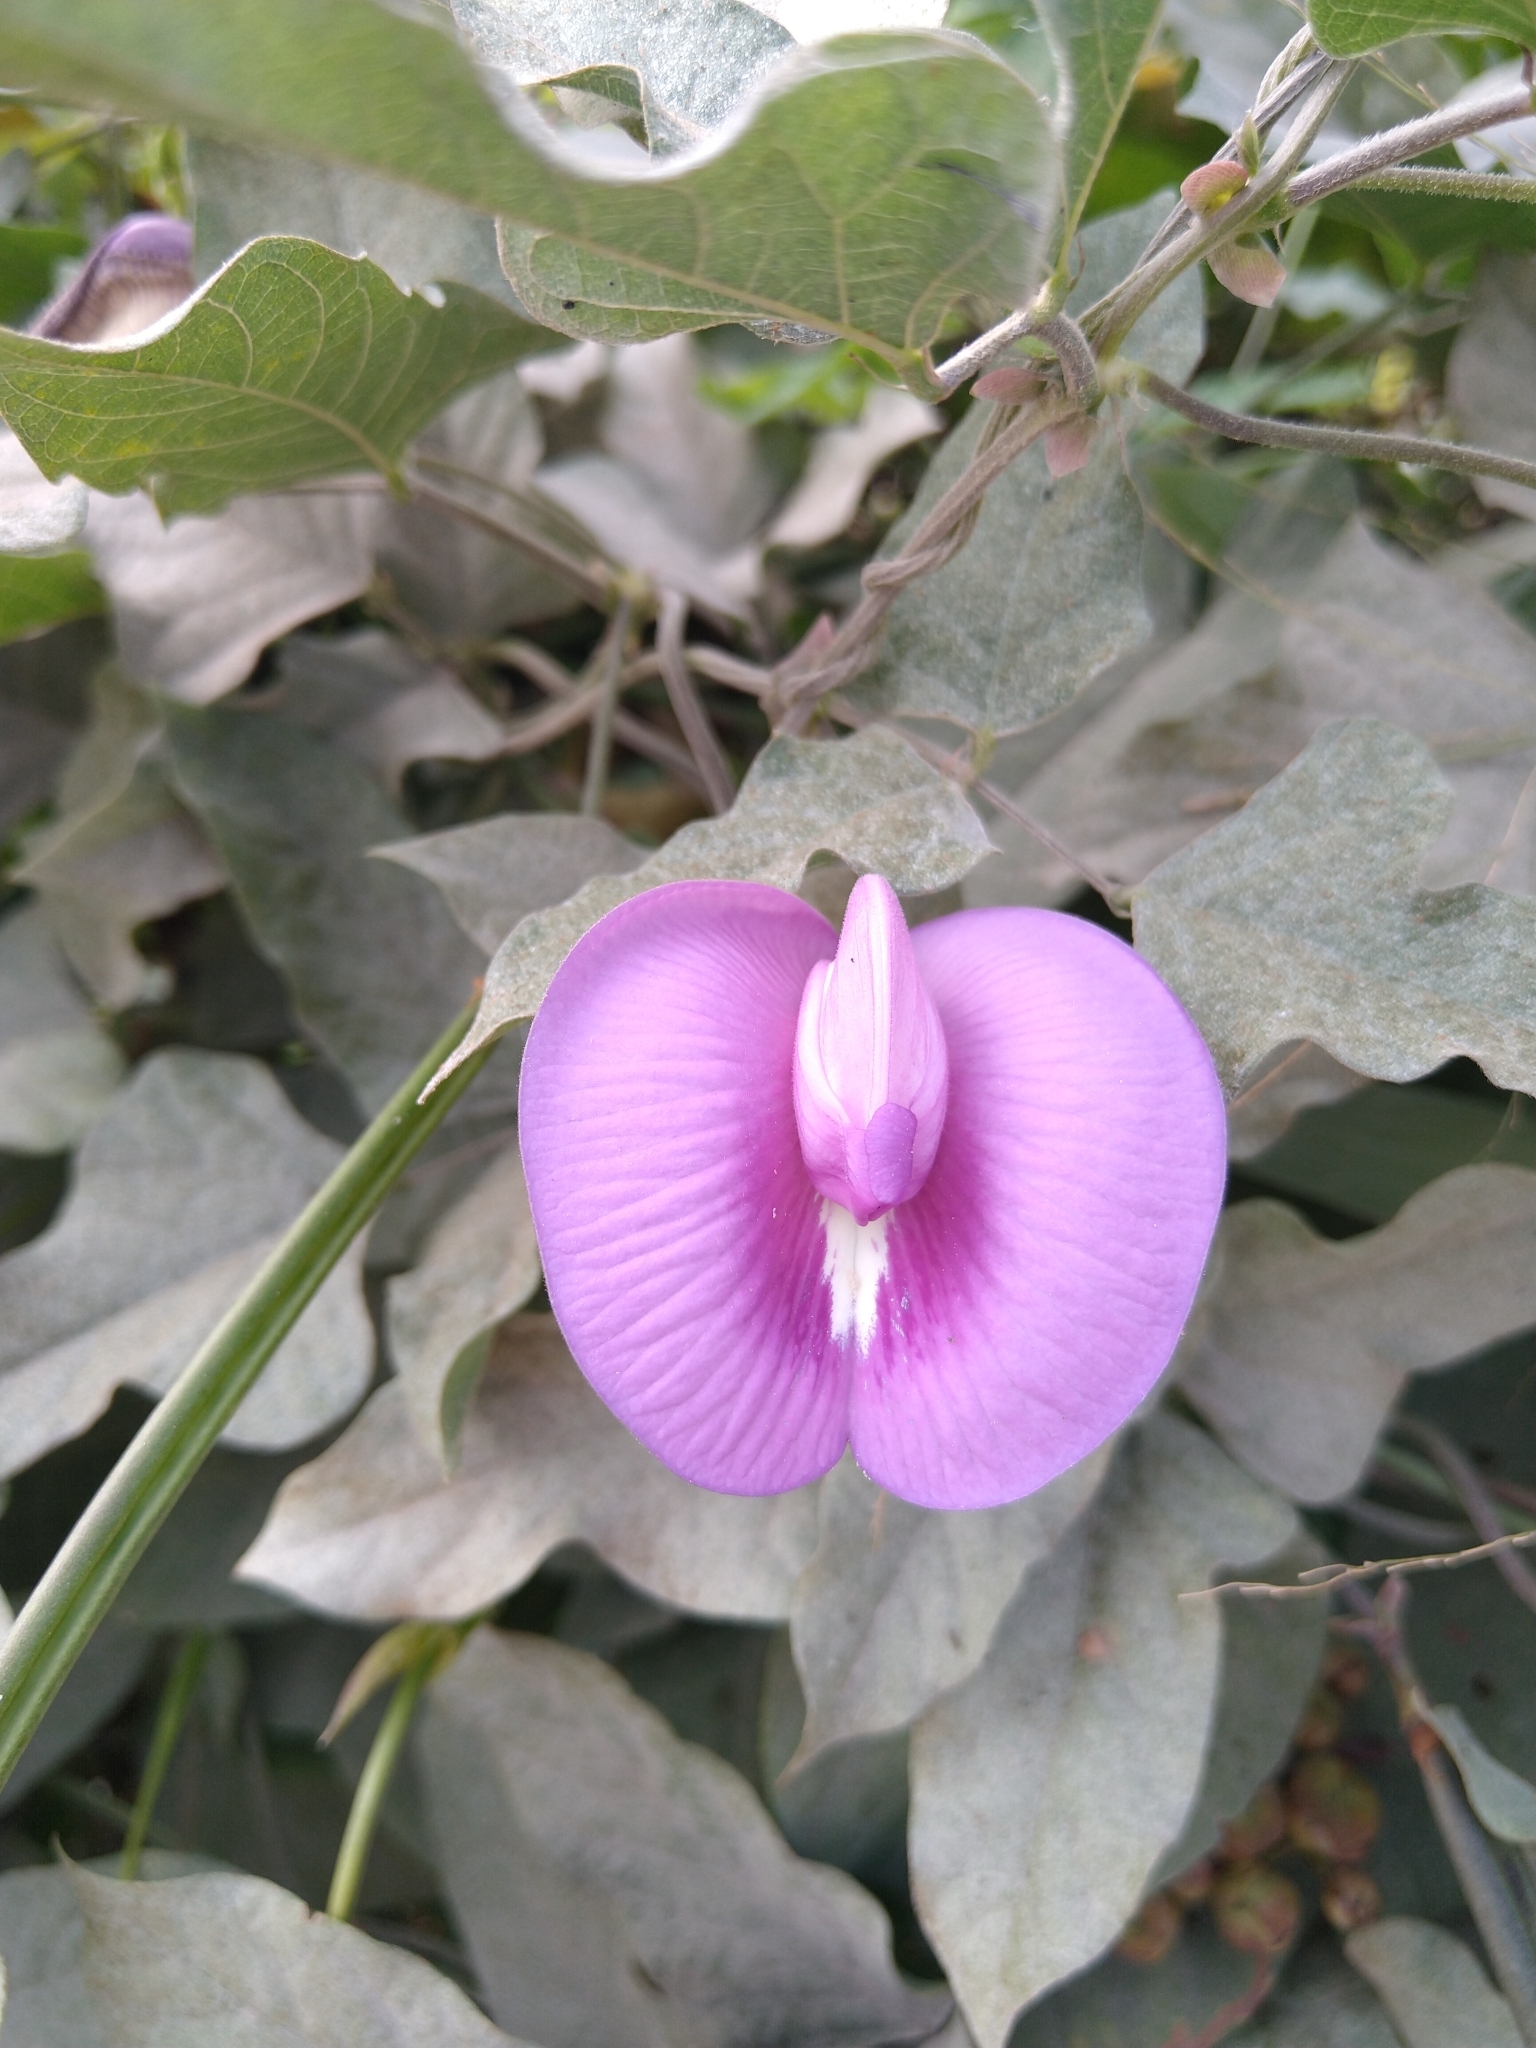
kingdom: Plantae
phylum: Tracheophyta
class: Magnoliopsida
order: Fabales
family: Fabaceae
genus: Centrosema
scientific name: Centrosema virginianum
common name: Butterfly-pea
